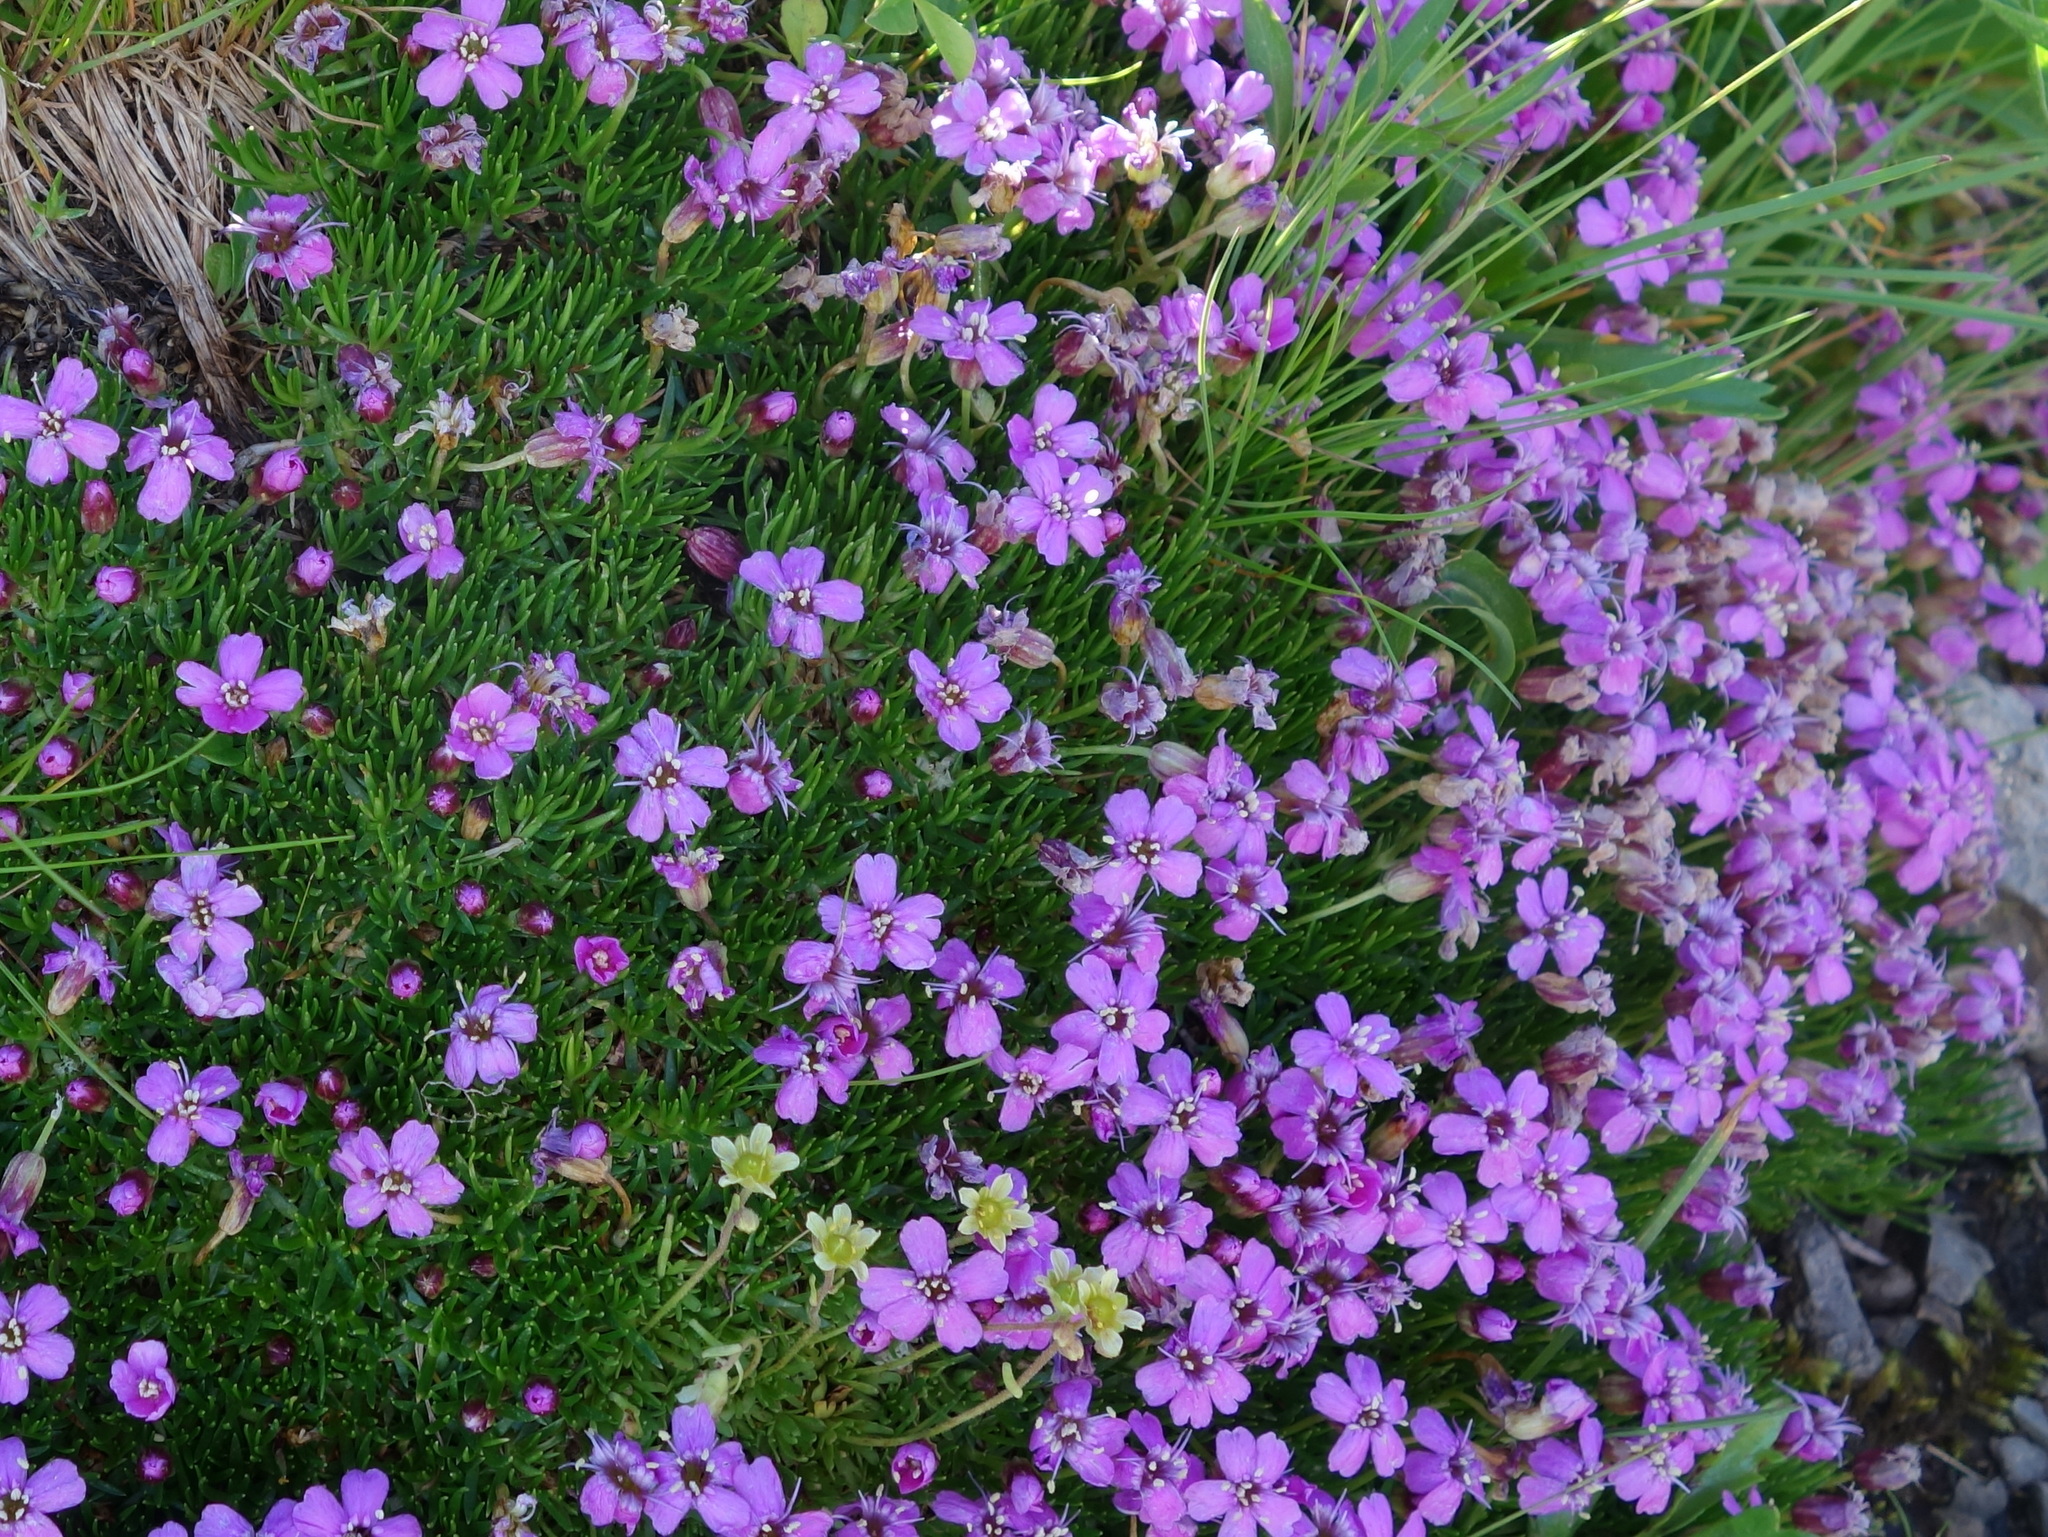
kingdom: Plantae
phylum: Tracheophyta
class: Magnoliopsida
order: Caryophyllales
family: Caryophyllaceae
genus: Silene
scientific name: Silene acaulis
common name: Moss campion
